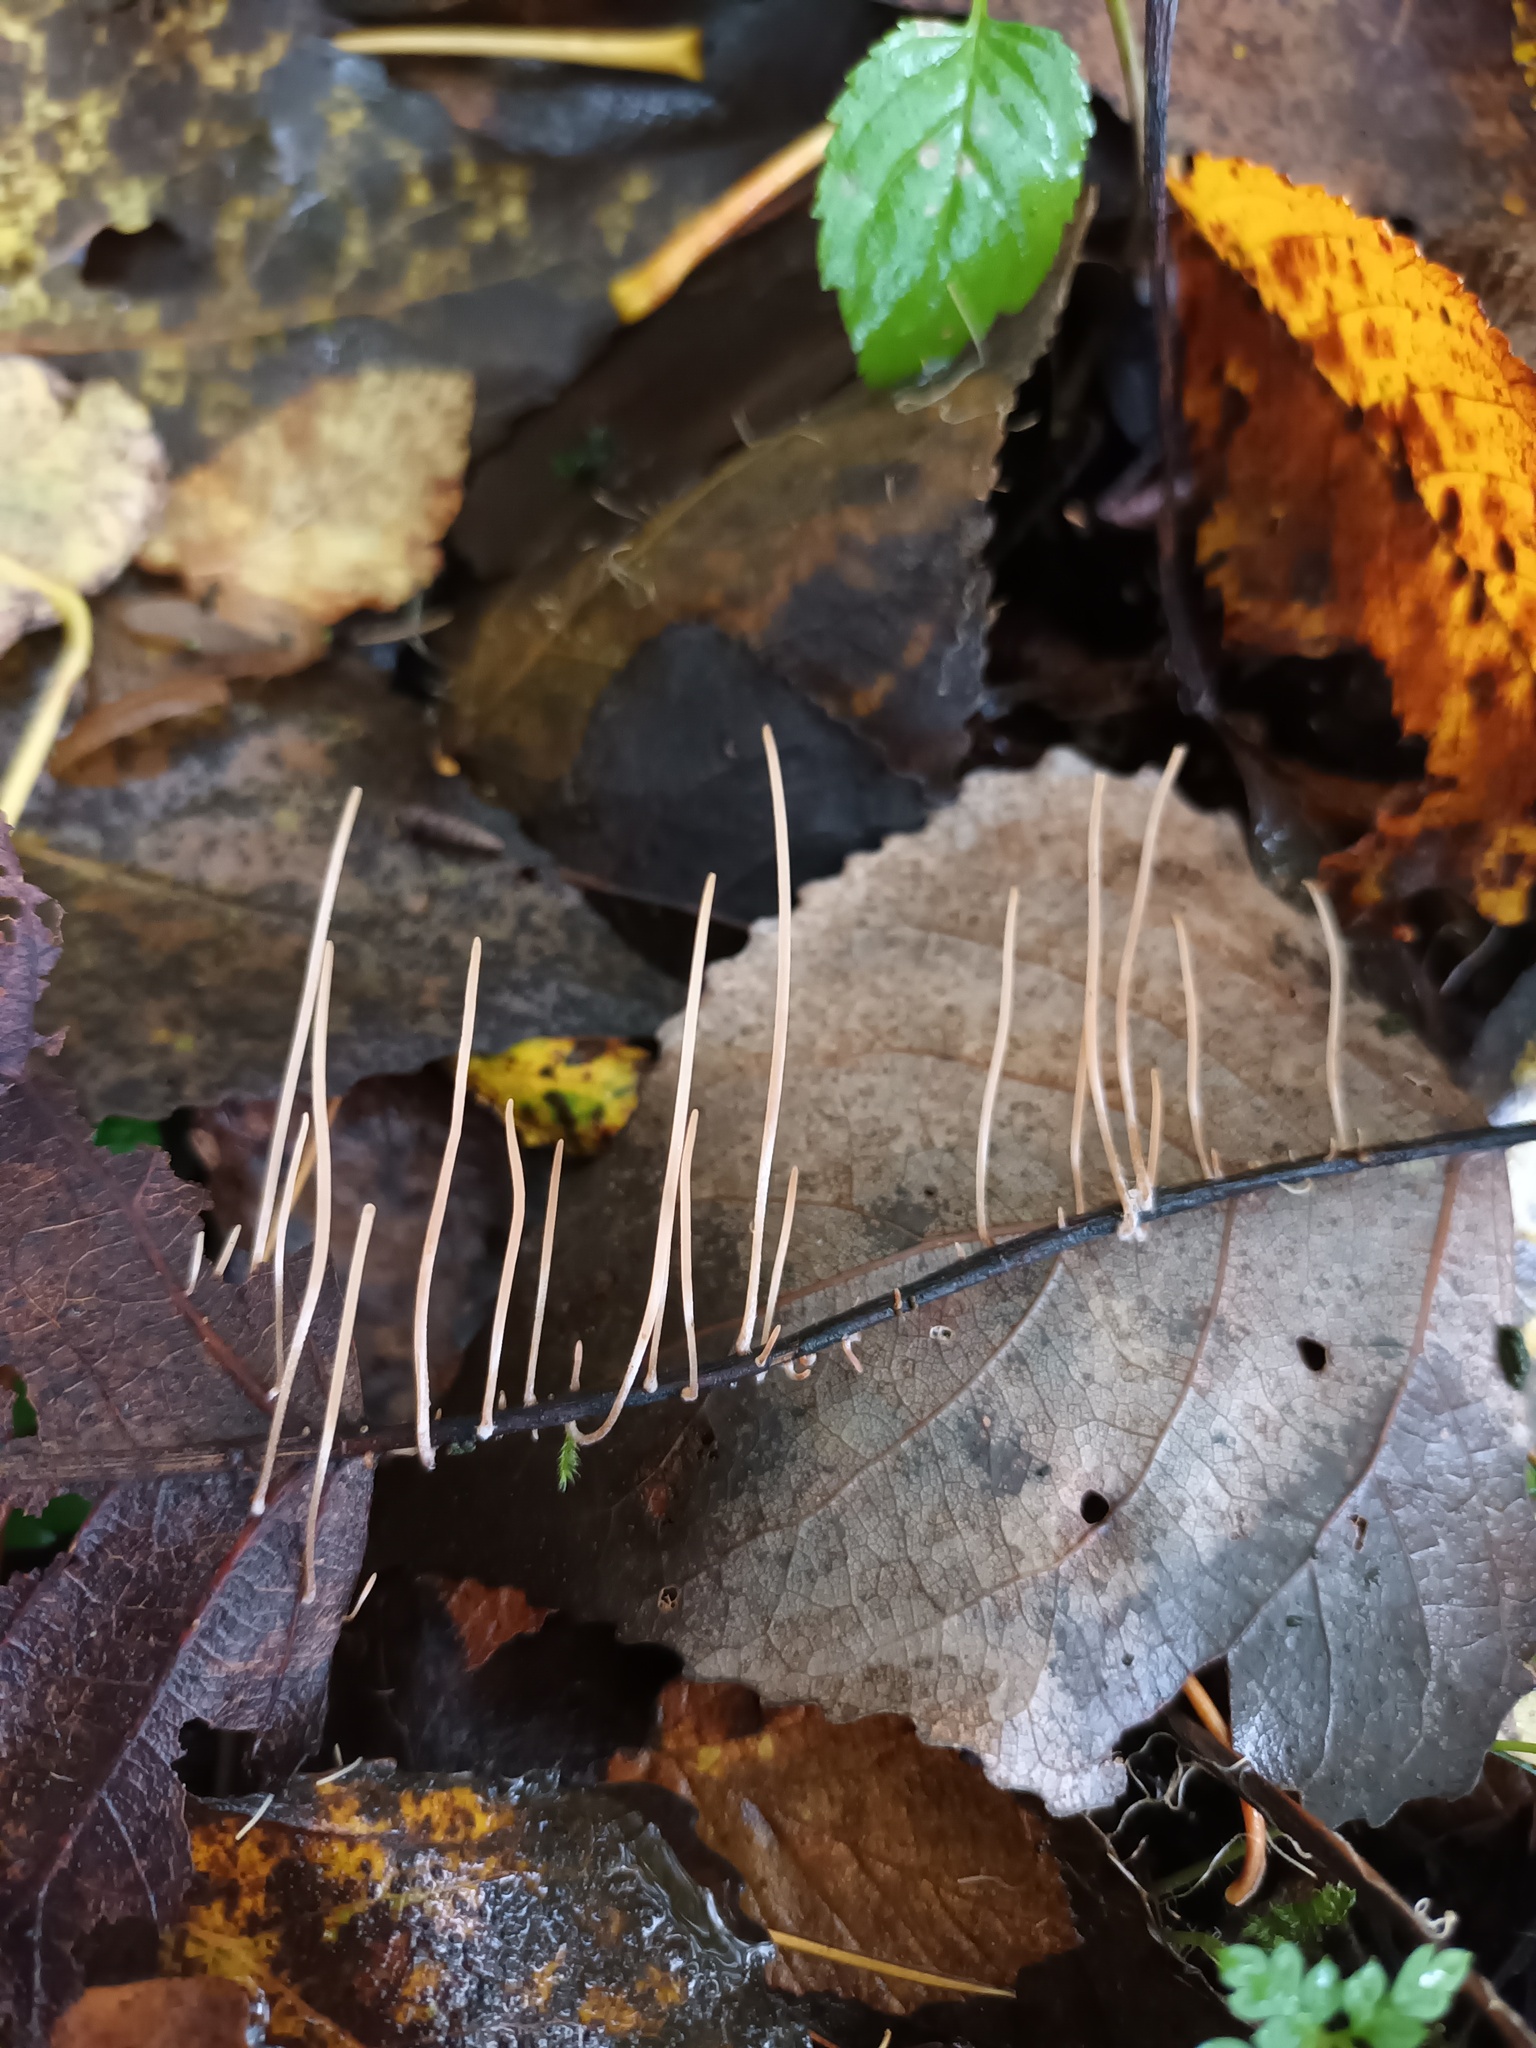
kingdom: Fungi
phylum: Basidiomycota
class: Agaricomycetes
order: Agaricales
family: Typhulaceae
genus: Typhula
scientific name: Typhula juncea
